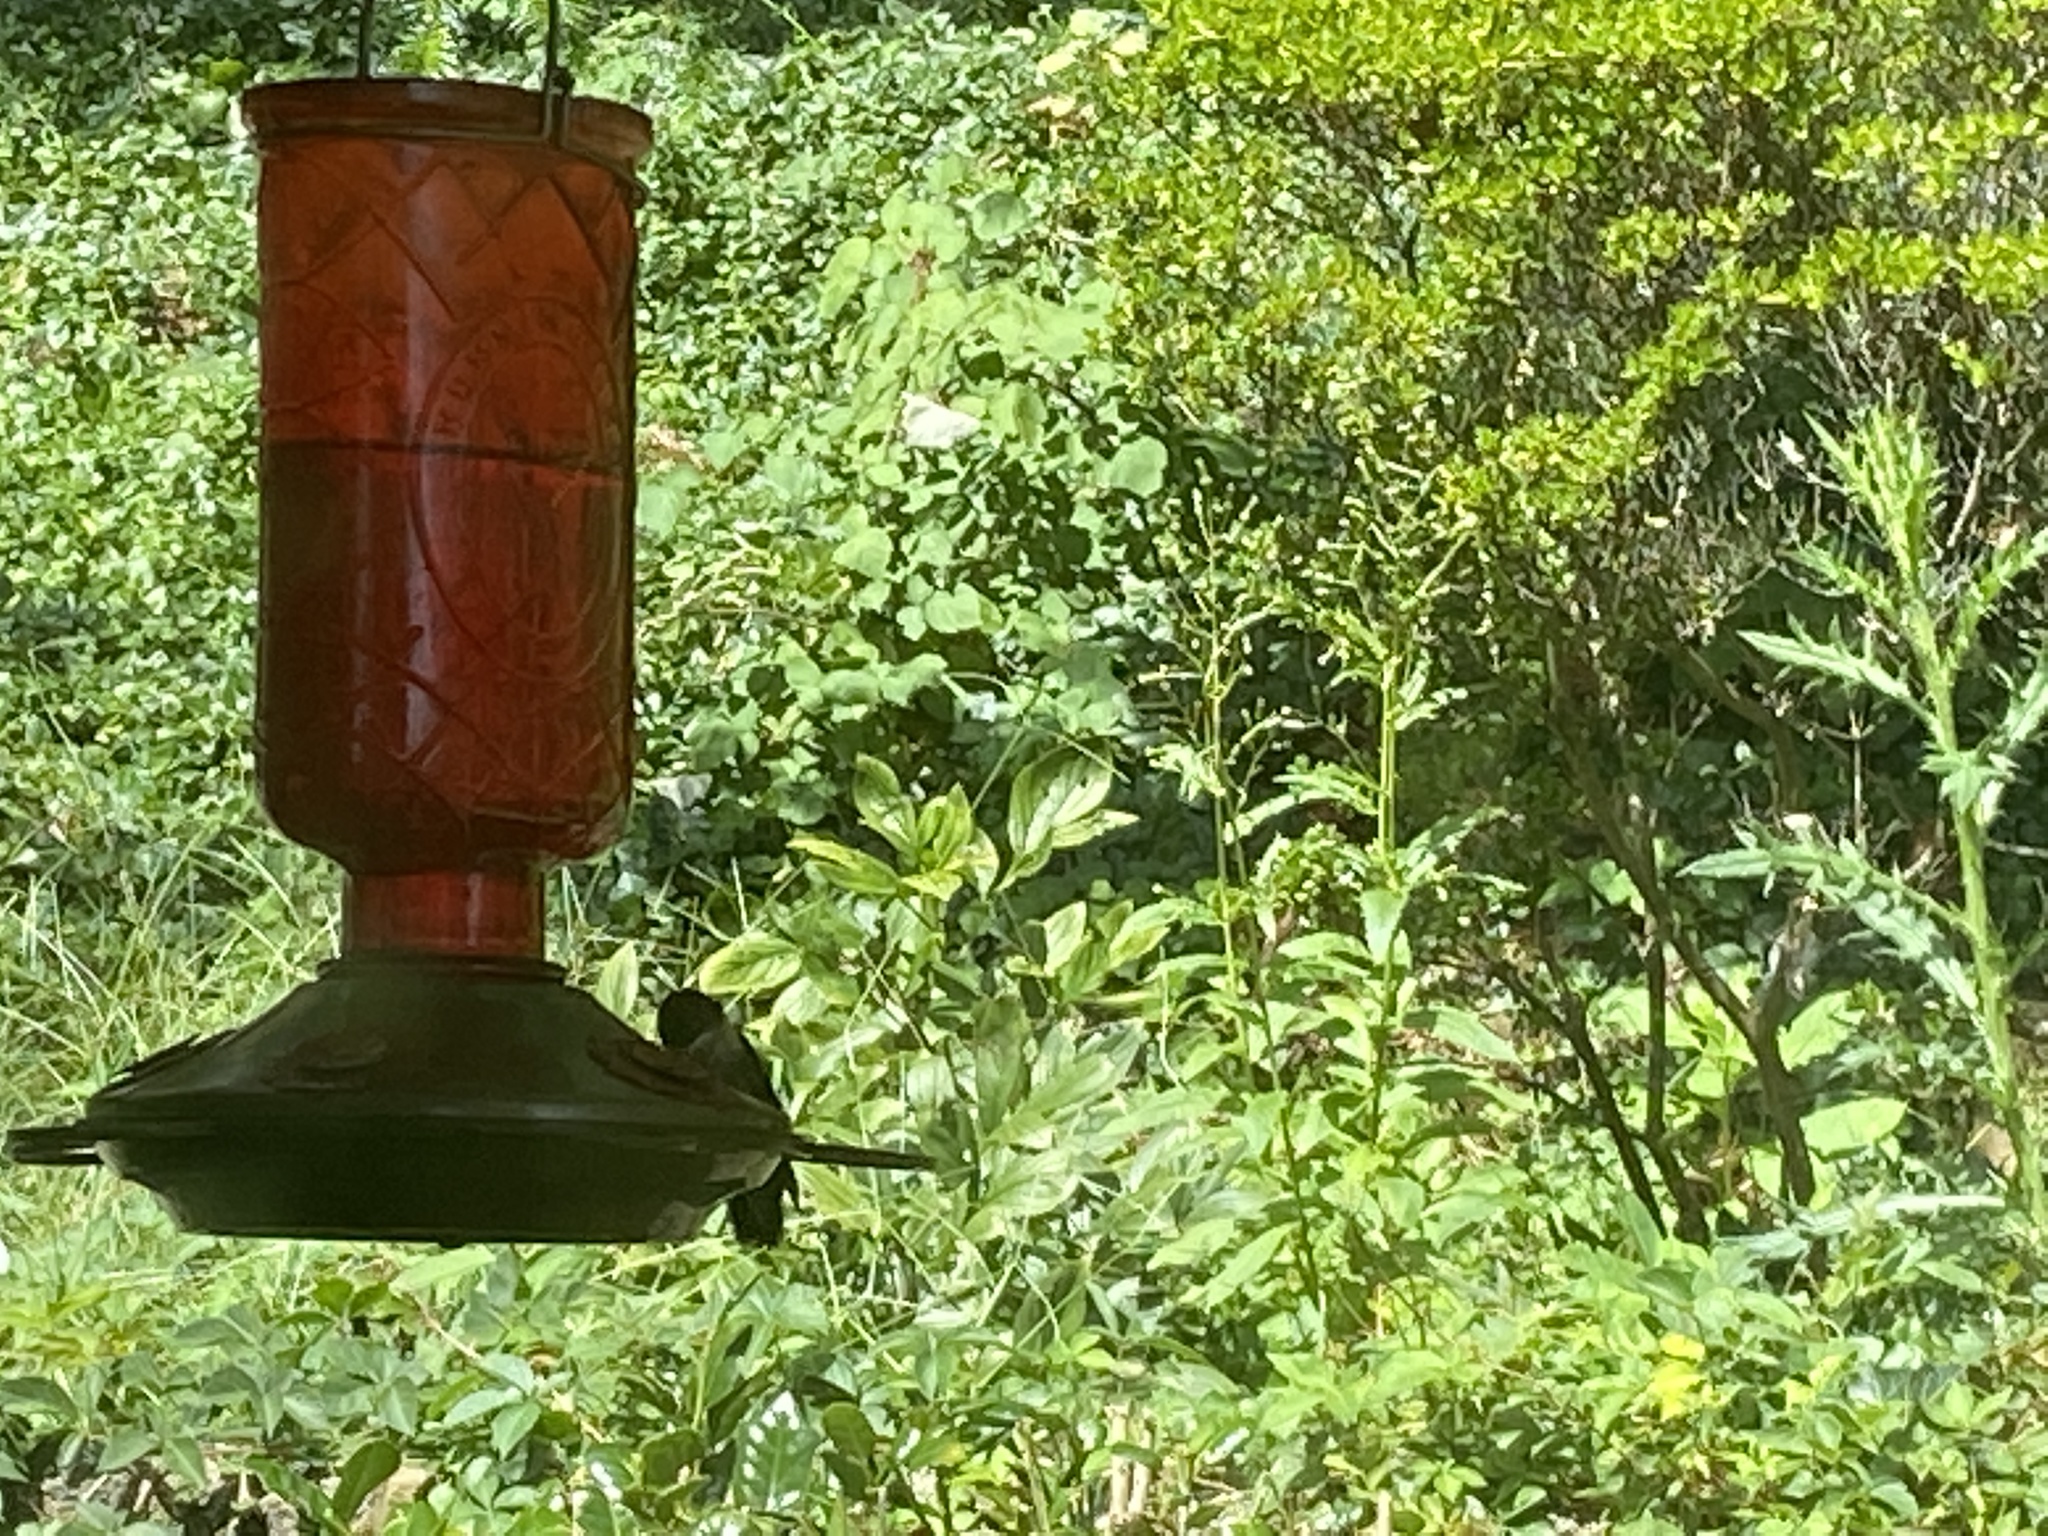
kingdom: Animalia
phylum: Chordata
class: Aves
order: Apodiformes
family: Trochilidae
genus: Archilochus
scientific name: Archilochus colubris
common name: Ruby-throated hummingbird
